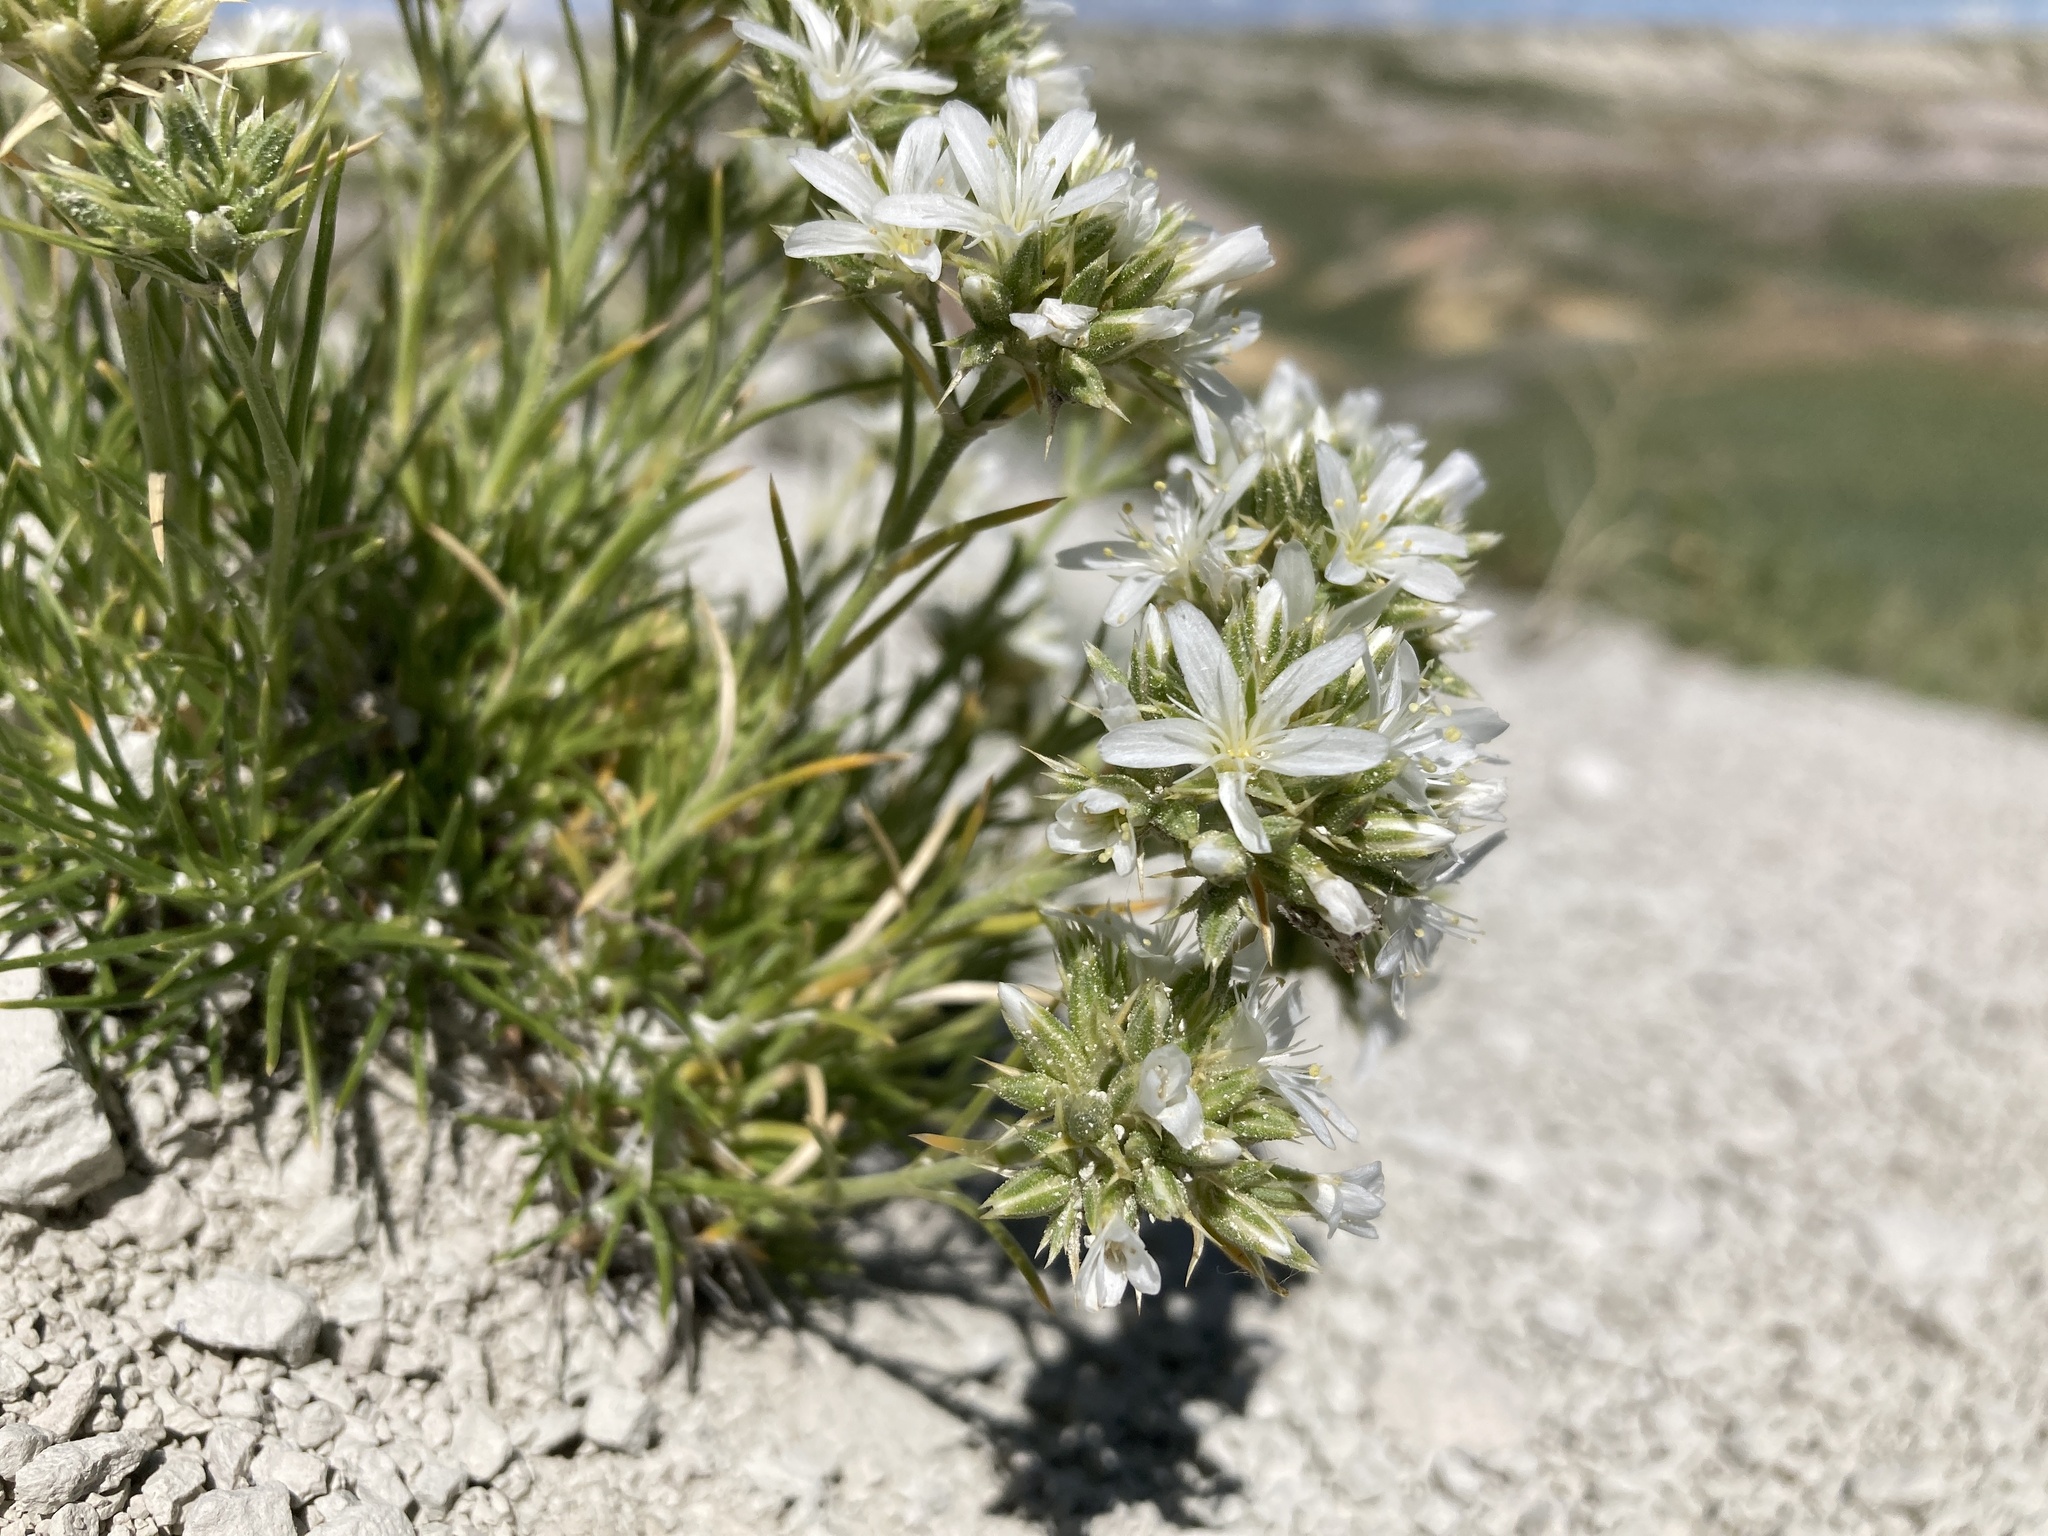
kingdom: Plantae
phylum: Tracheophyta
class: Magnoliopsida
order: Caryophyllales
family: Caryophyllaceae
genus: Eremogone
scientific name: Eremogone hookeri
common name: Hooker's sandwort
